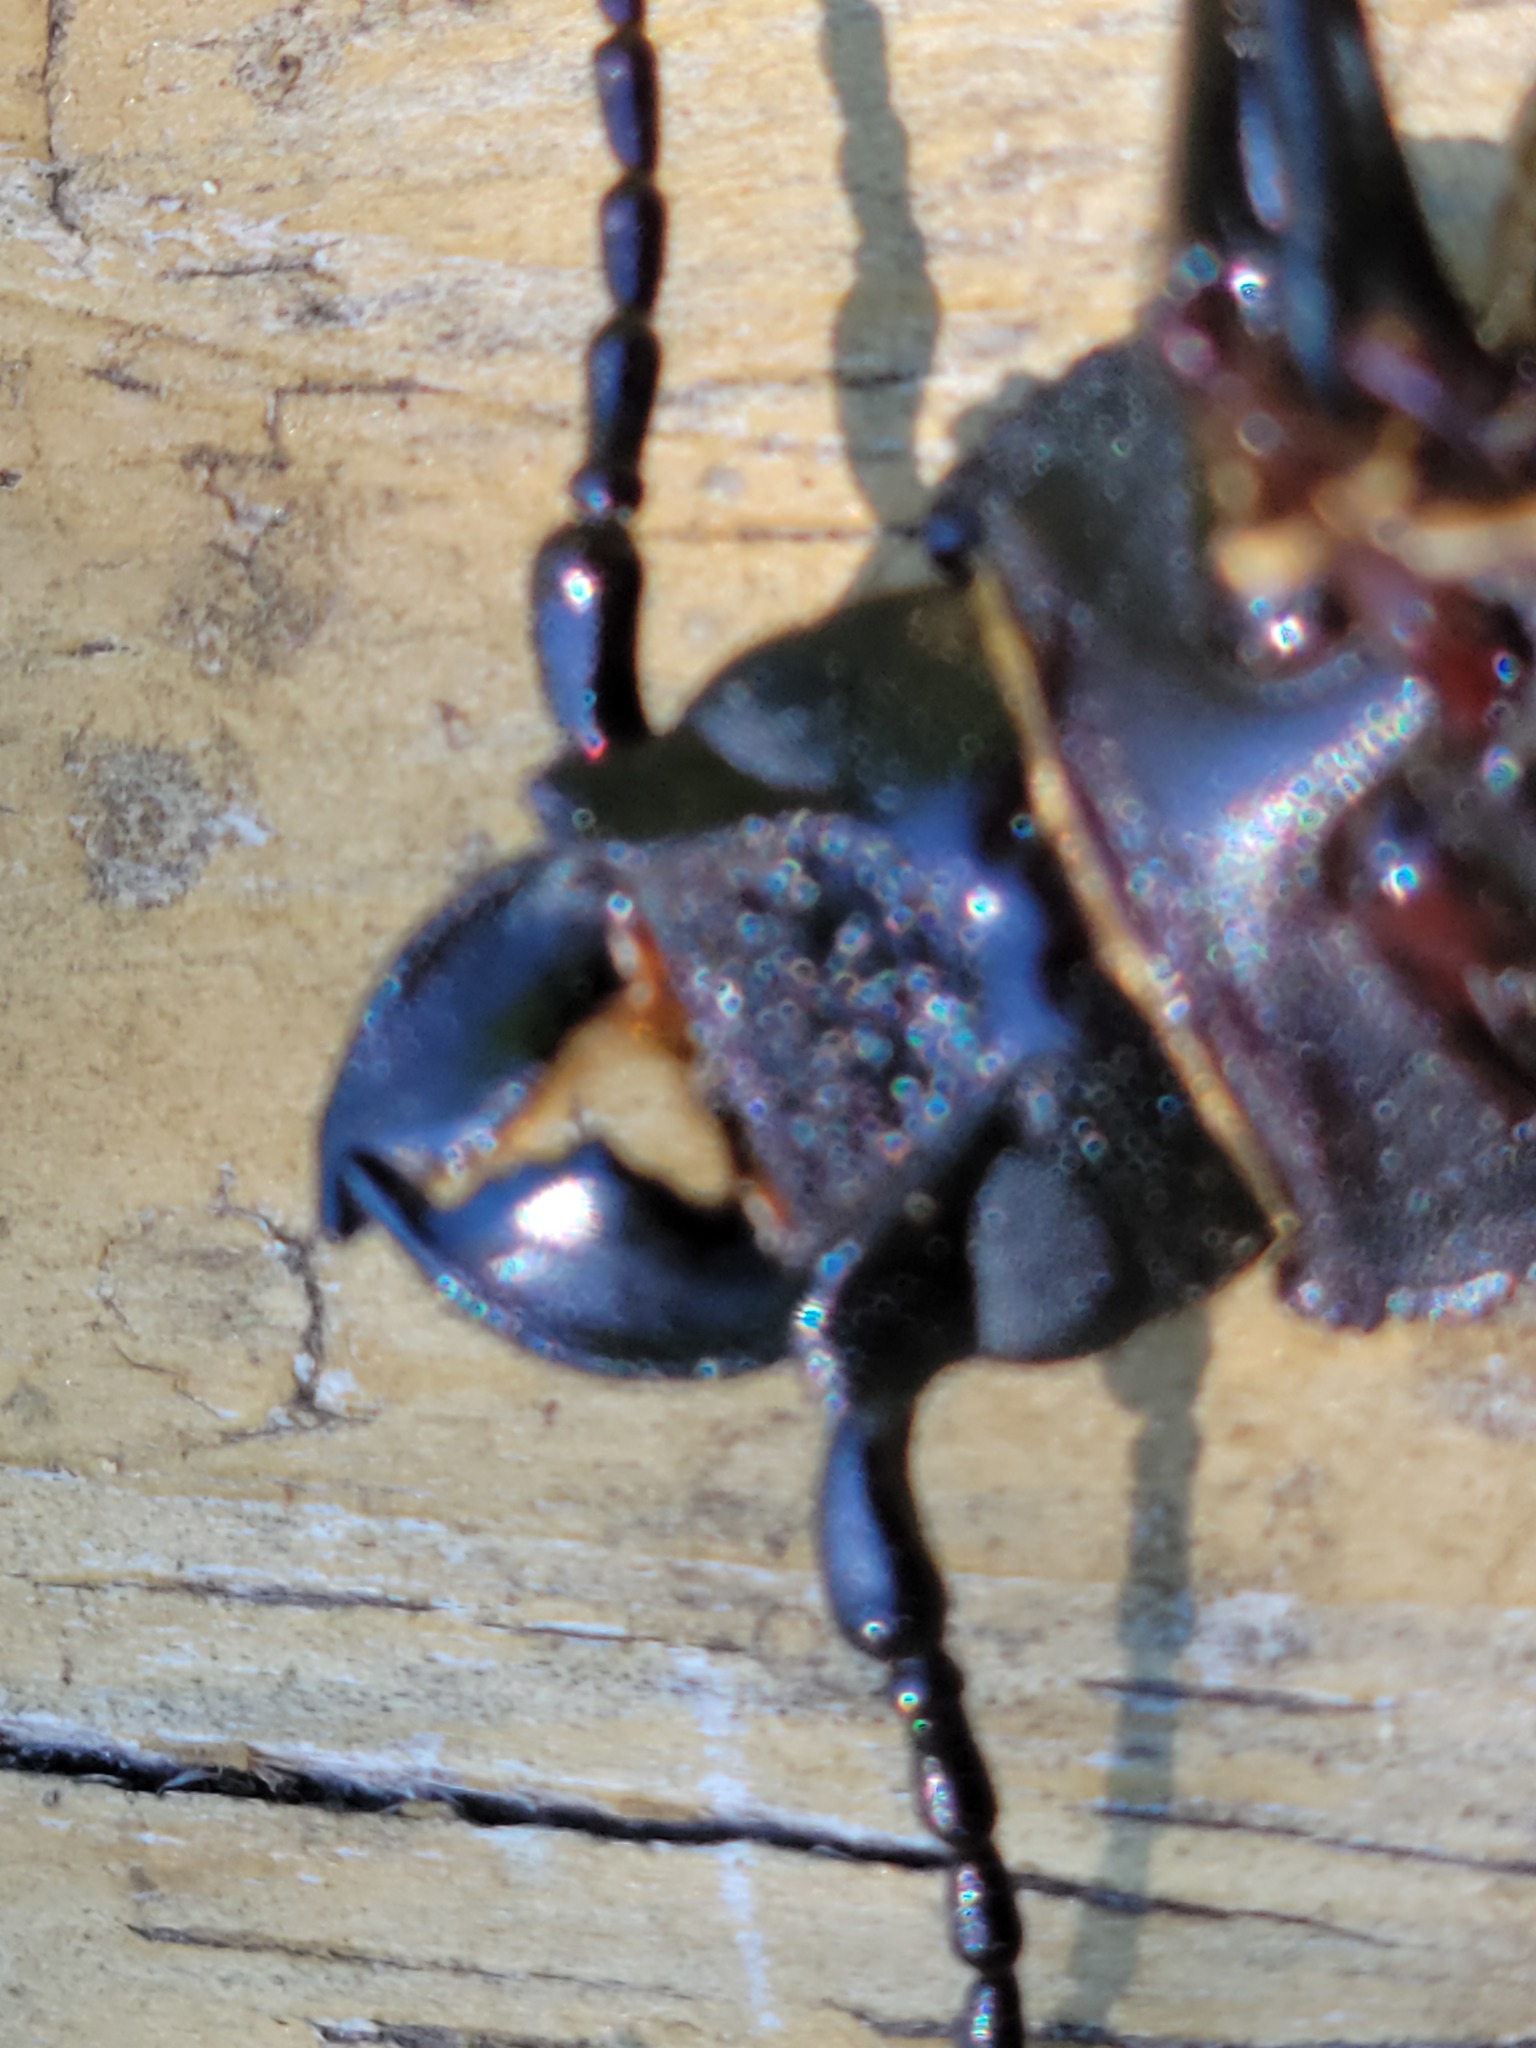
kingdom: Animalia
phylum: Arthropoda
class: Insecta
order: Coleoptera
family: Cerambycidae
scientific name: Cerambycidae
